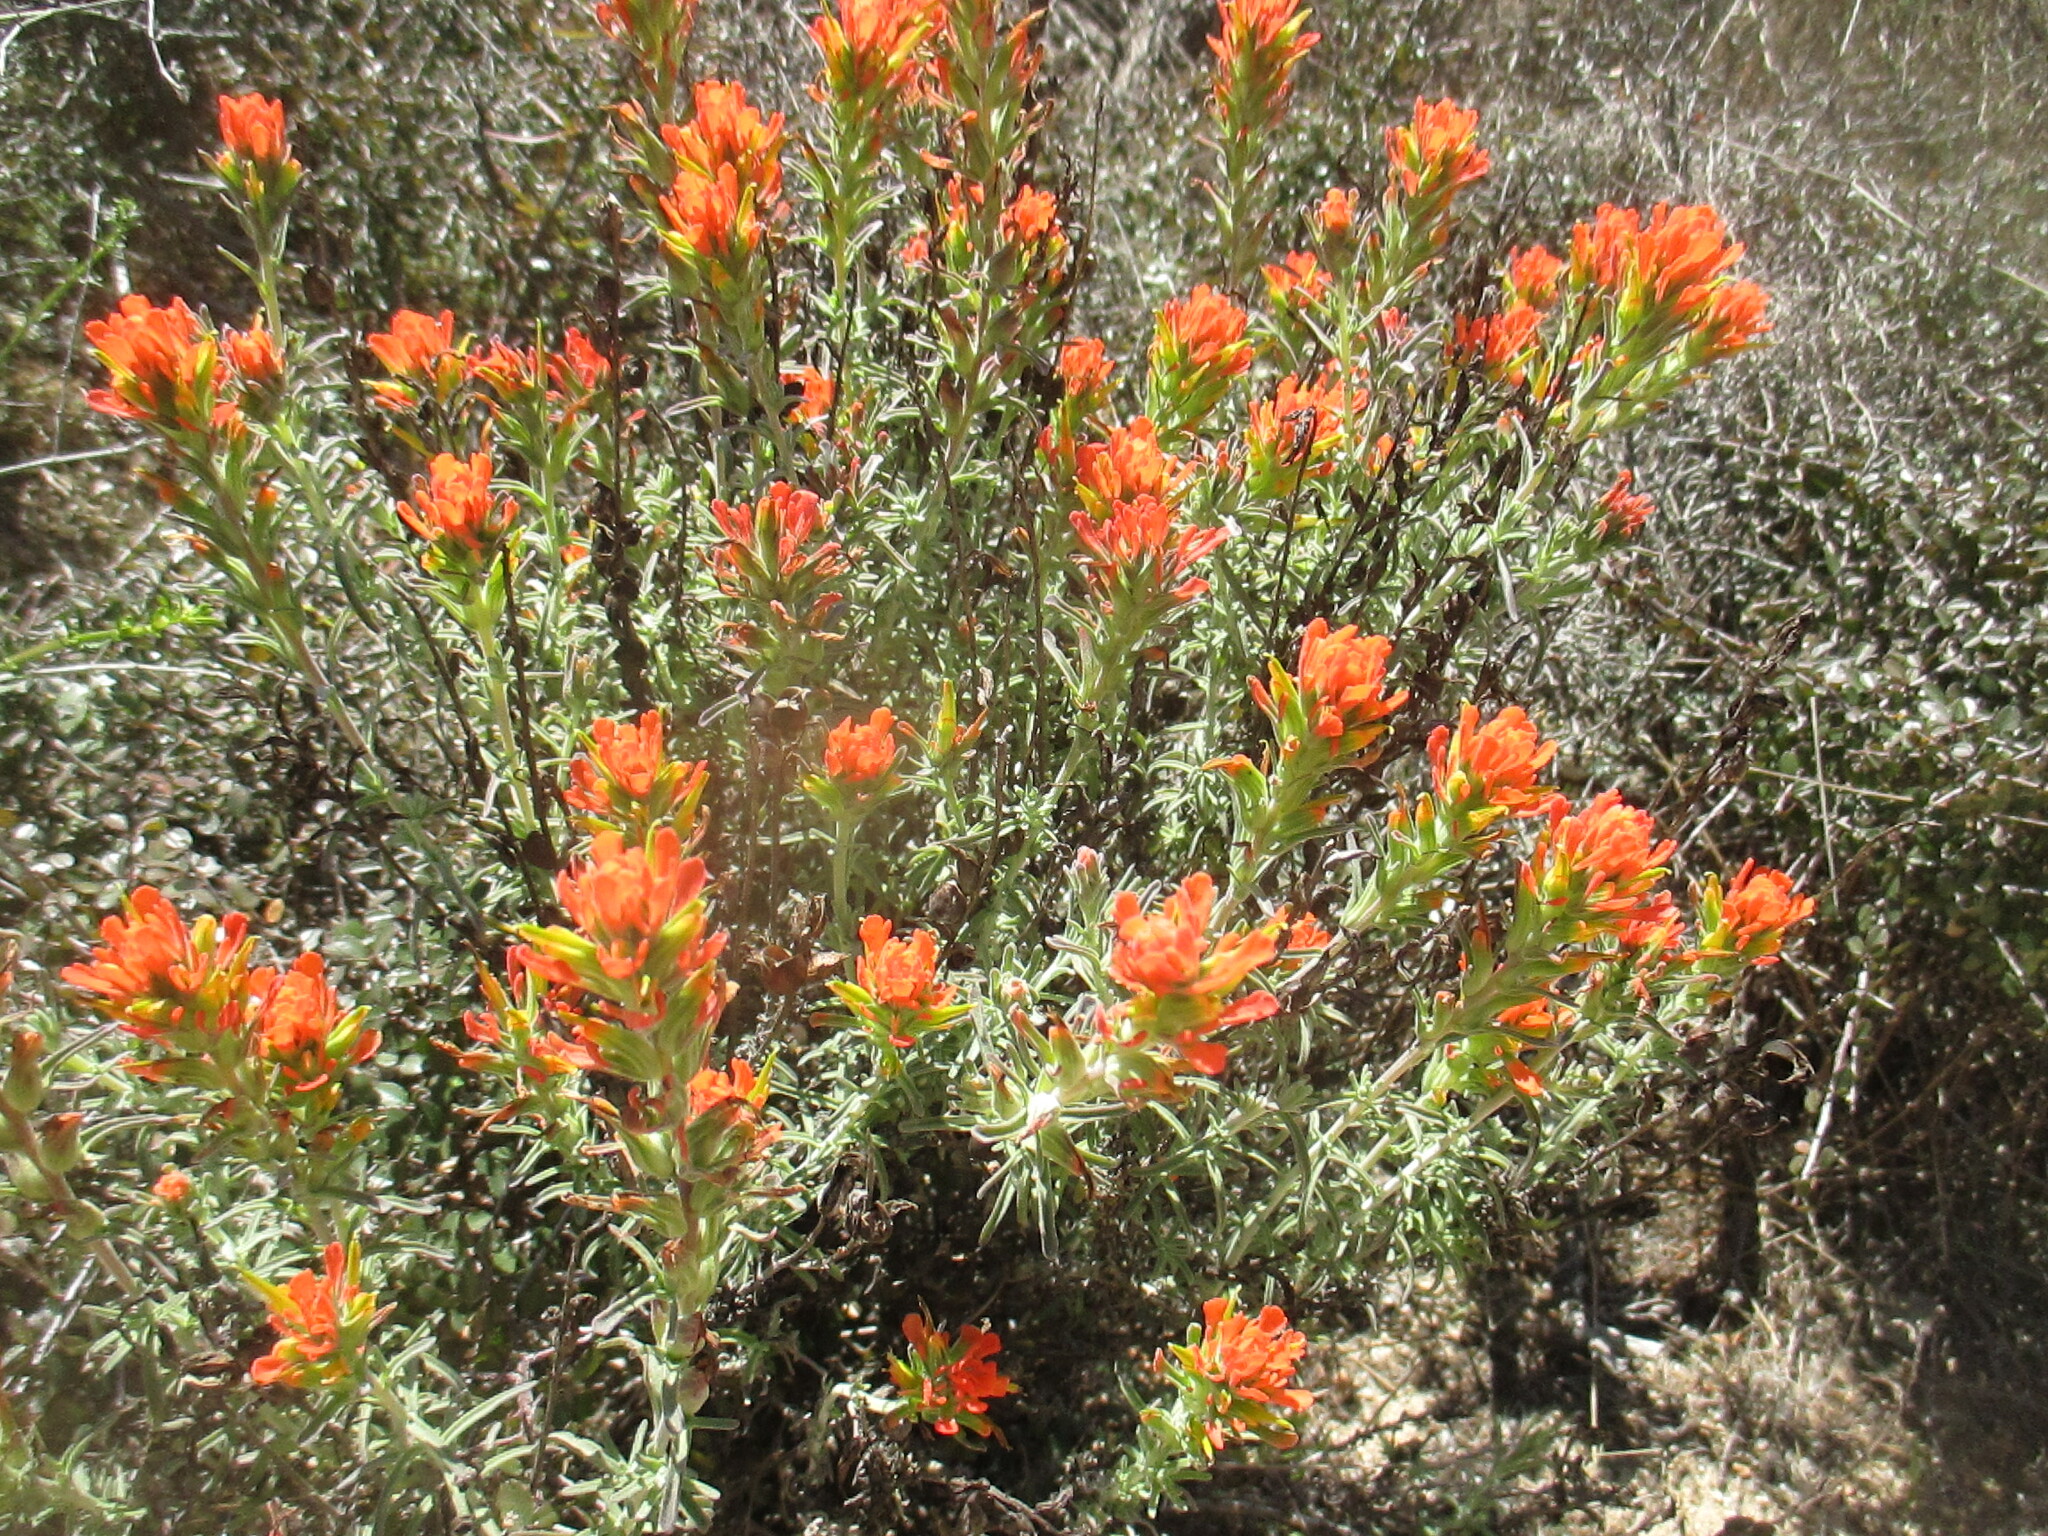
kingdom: Plantae
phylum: Tracheophyta
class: Magnoliopsida
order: Lamiales
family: Orobanchaceae
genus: Castilleja
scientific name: Castilleja foliolosa
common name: Woolly indian paintbrush
